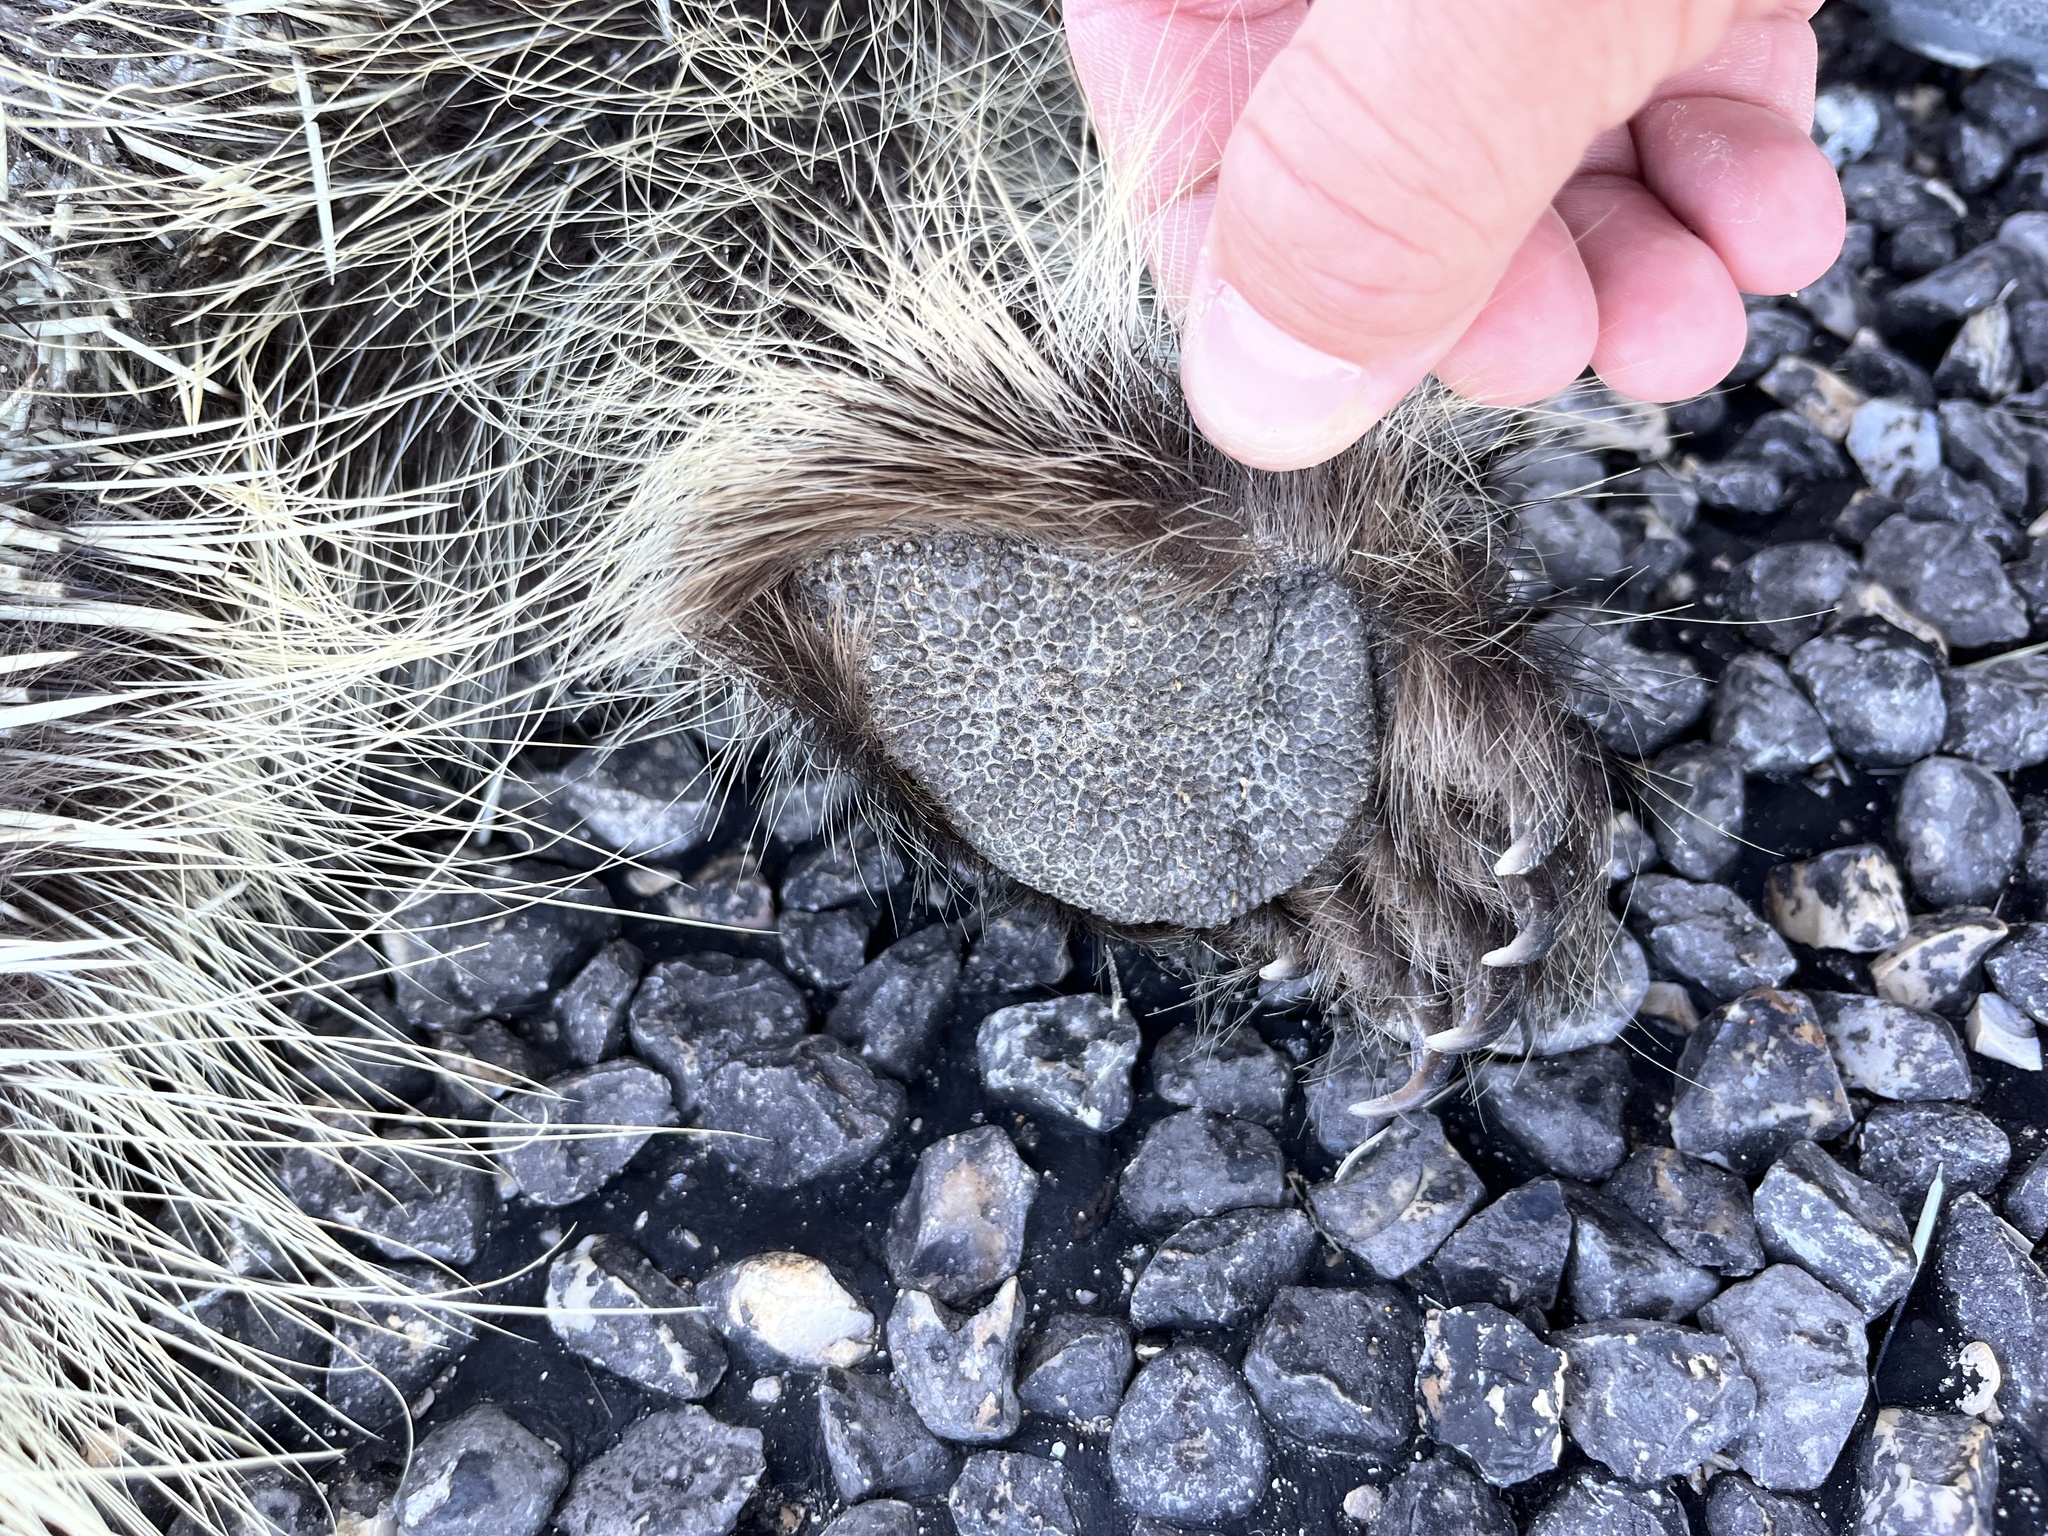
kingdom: Animalia
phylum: Chordata
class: Mammalia
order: Rodentia
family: Erethizontidae
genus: Erethizon
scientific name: Erethizon dorsatus
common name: North american porcupine
